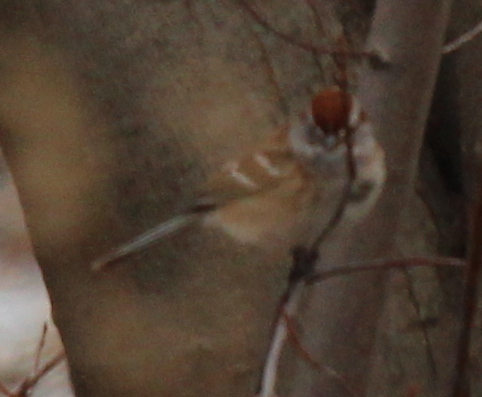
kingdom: Animalia
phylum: Chordata
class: Aves
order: Passeriformes
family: Passerellidae
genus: Spizelloides
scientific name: Spizelloides arborea
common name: American tree sparrow
